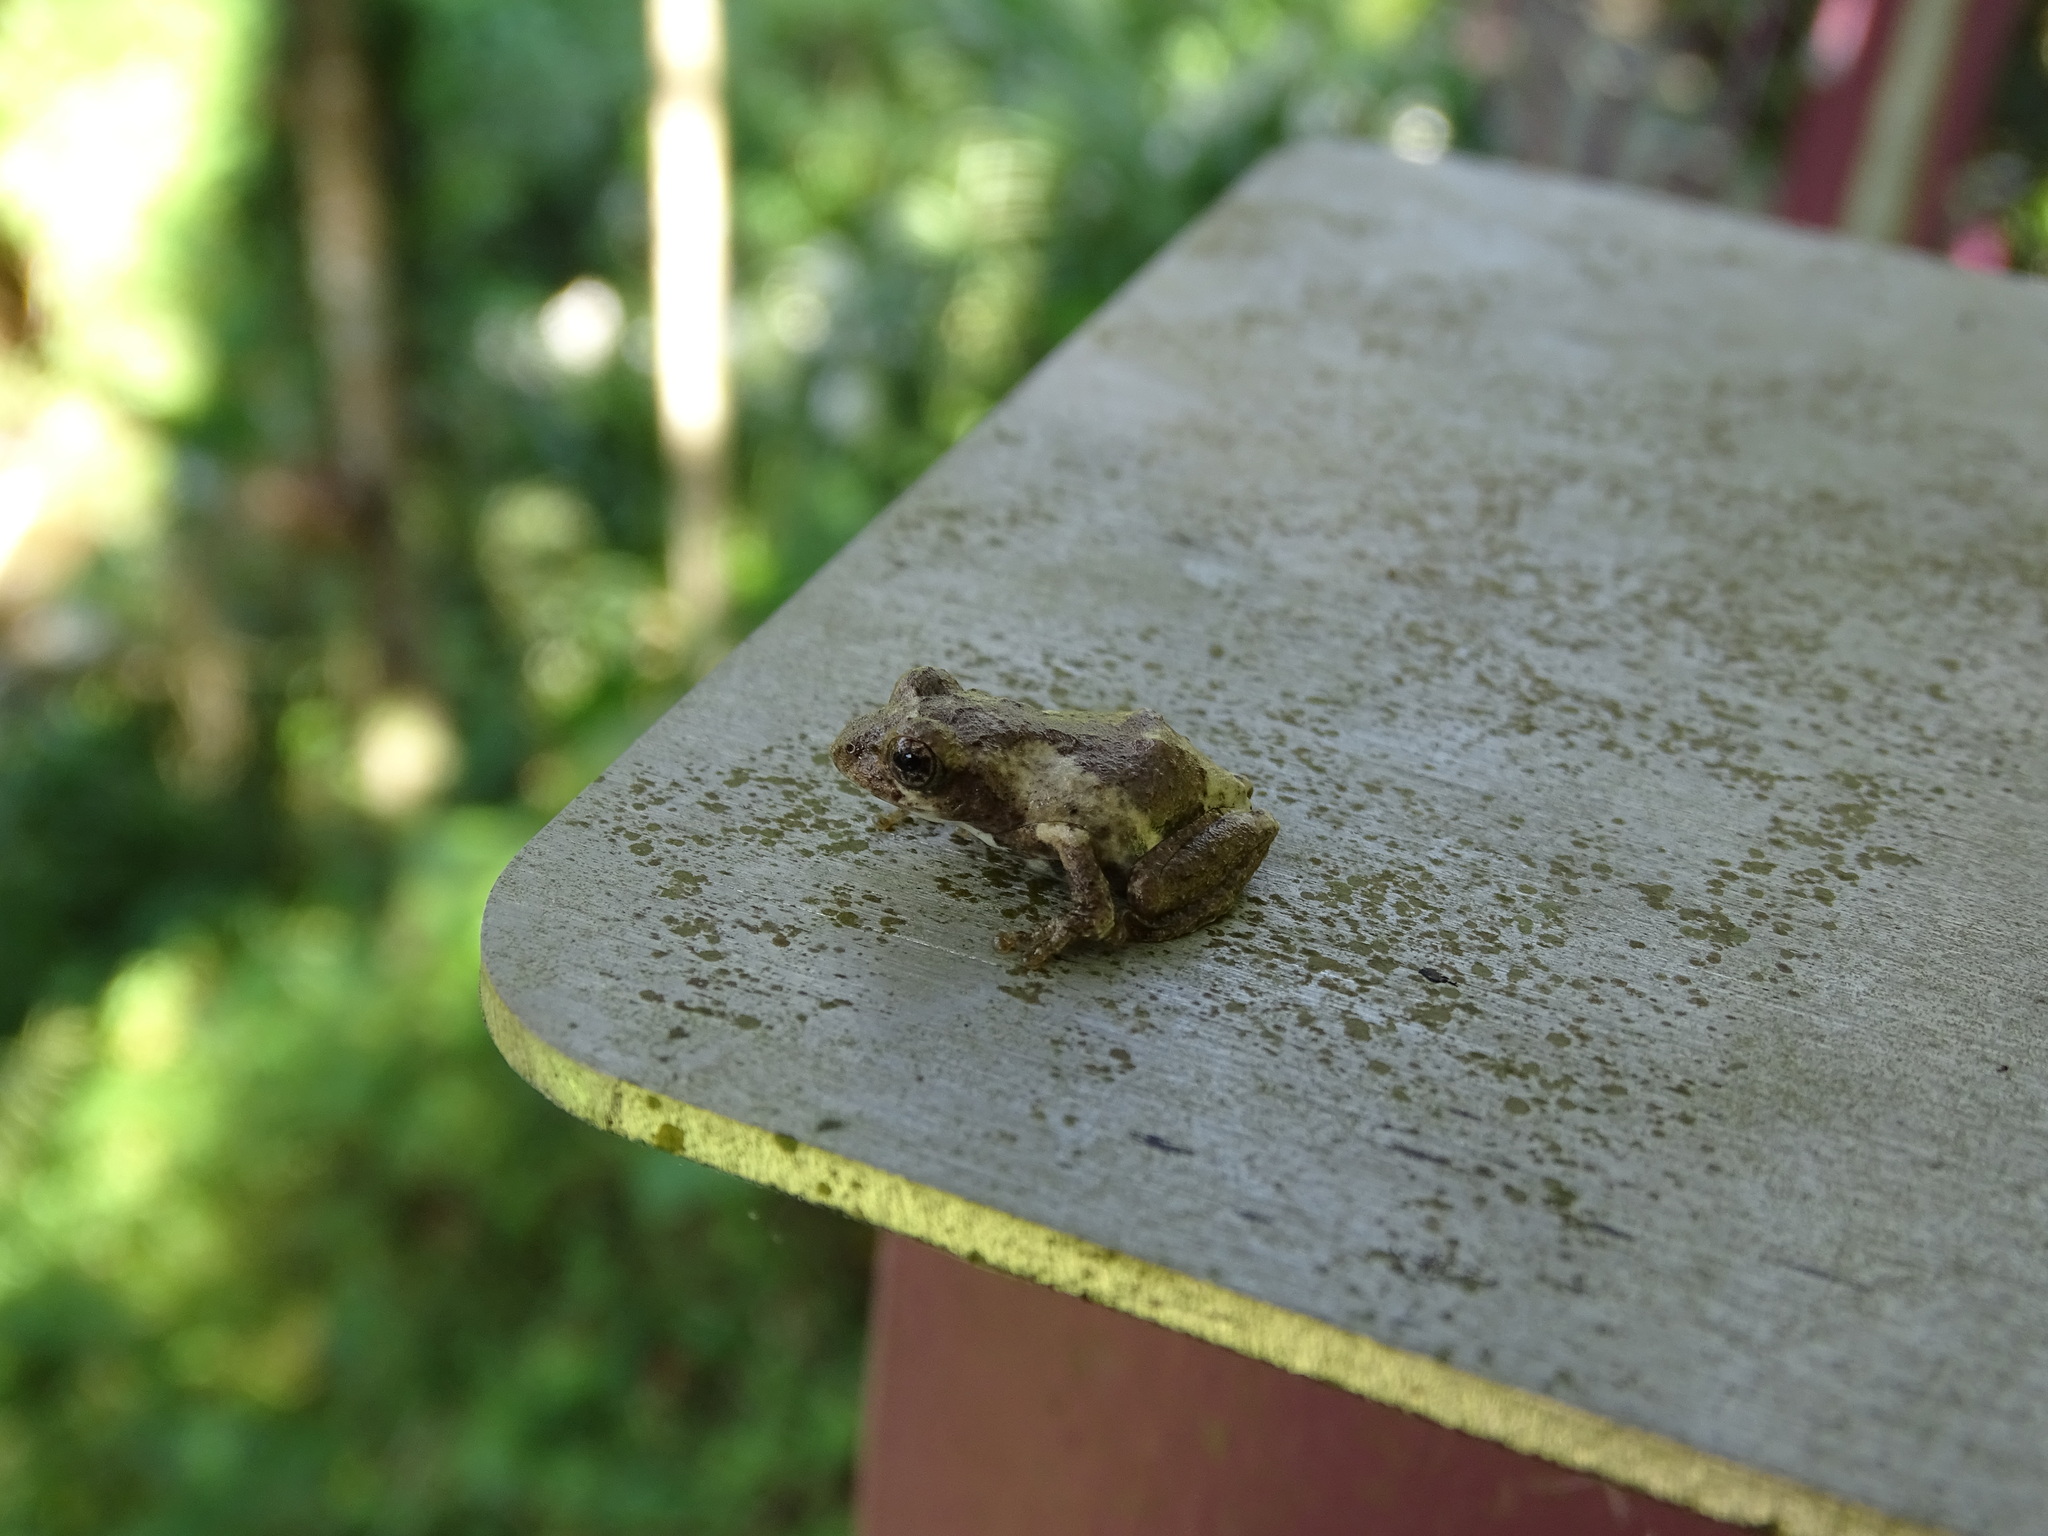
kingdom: Animalia
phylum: Chordata
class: Amphibia
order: Anura
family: Rhacophoridae
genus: Kurixalus
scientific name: Kurixalus idiootocus
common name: Temple treefrog
